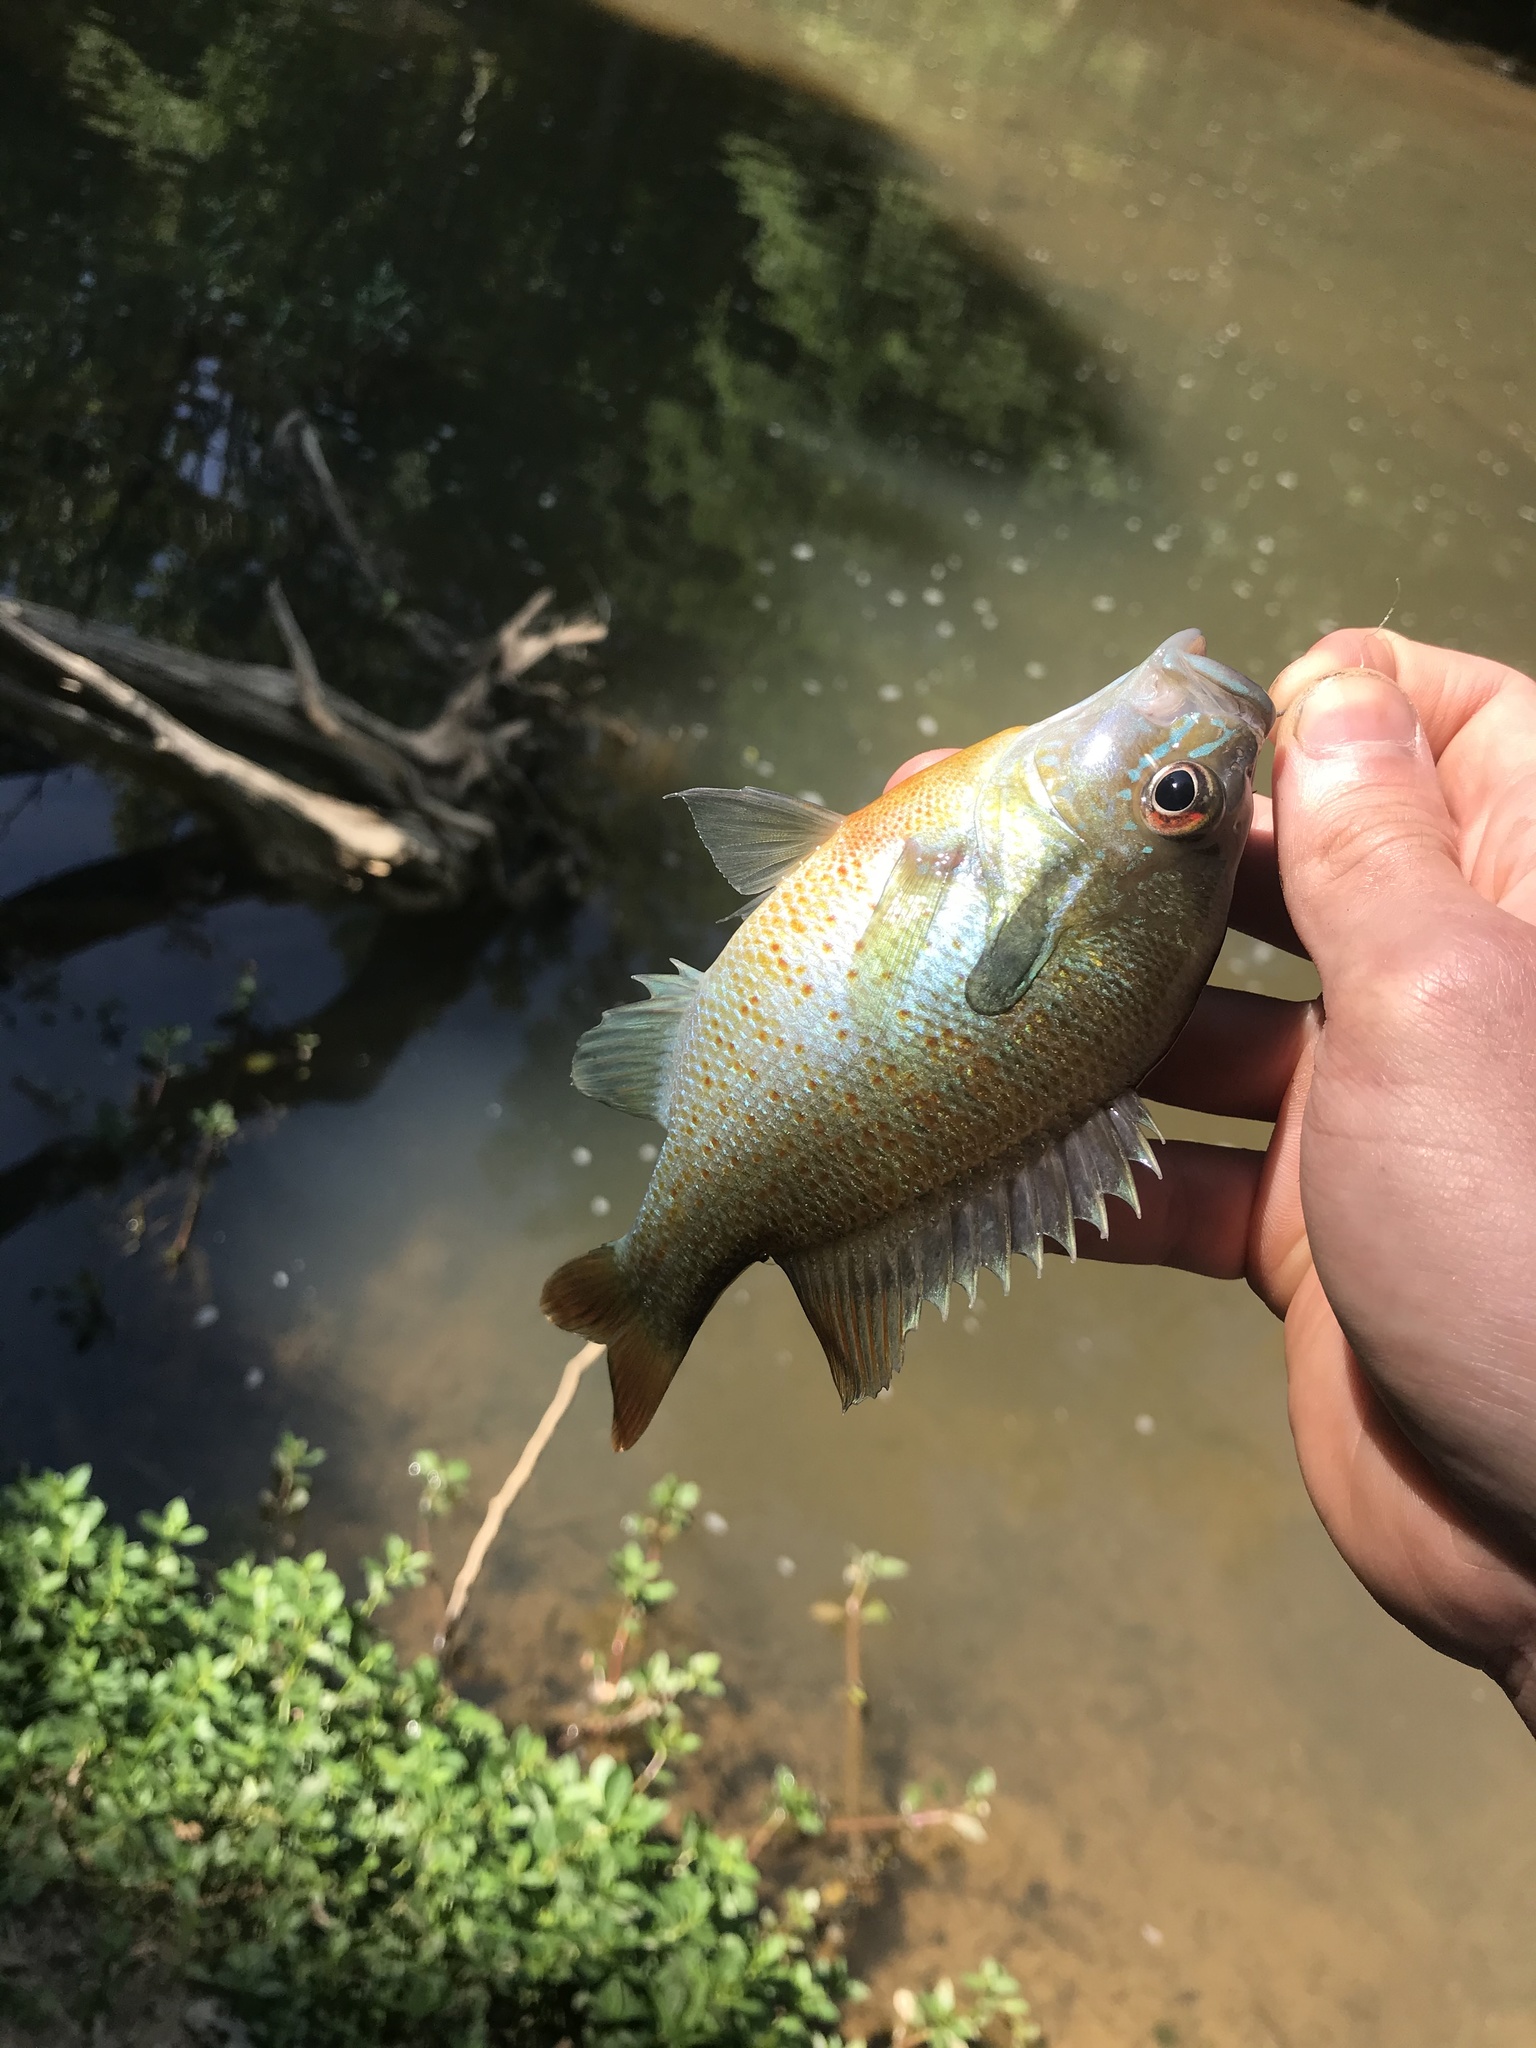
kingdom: Animalia
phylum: Chordata
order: Perciformes
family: Centrarchidae
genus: Lepomis
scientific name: Lepomis auritus
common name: Redbreast sunfish
